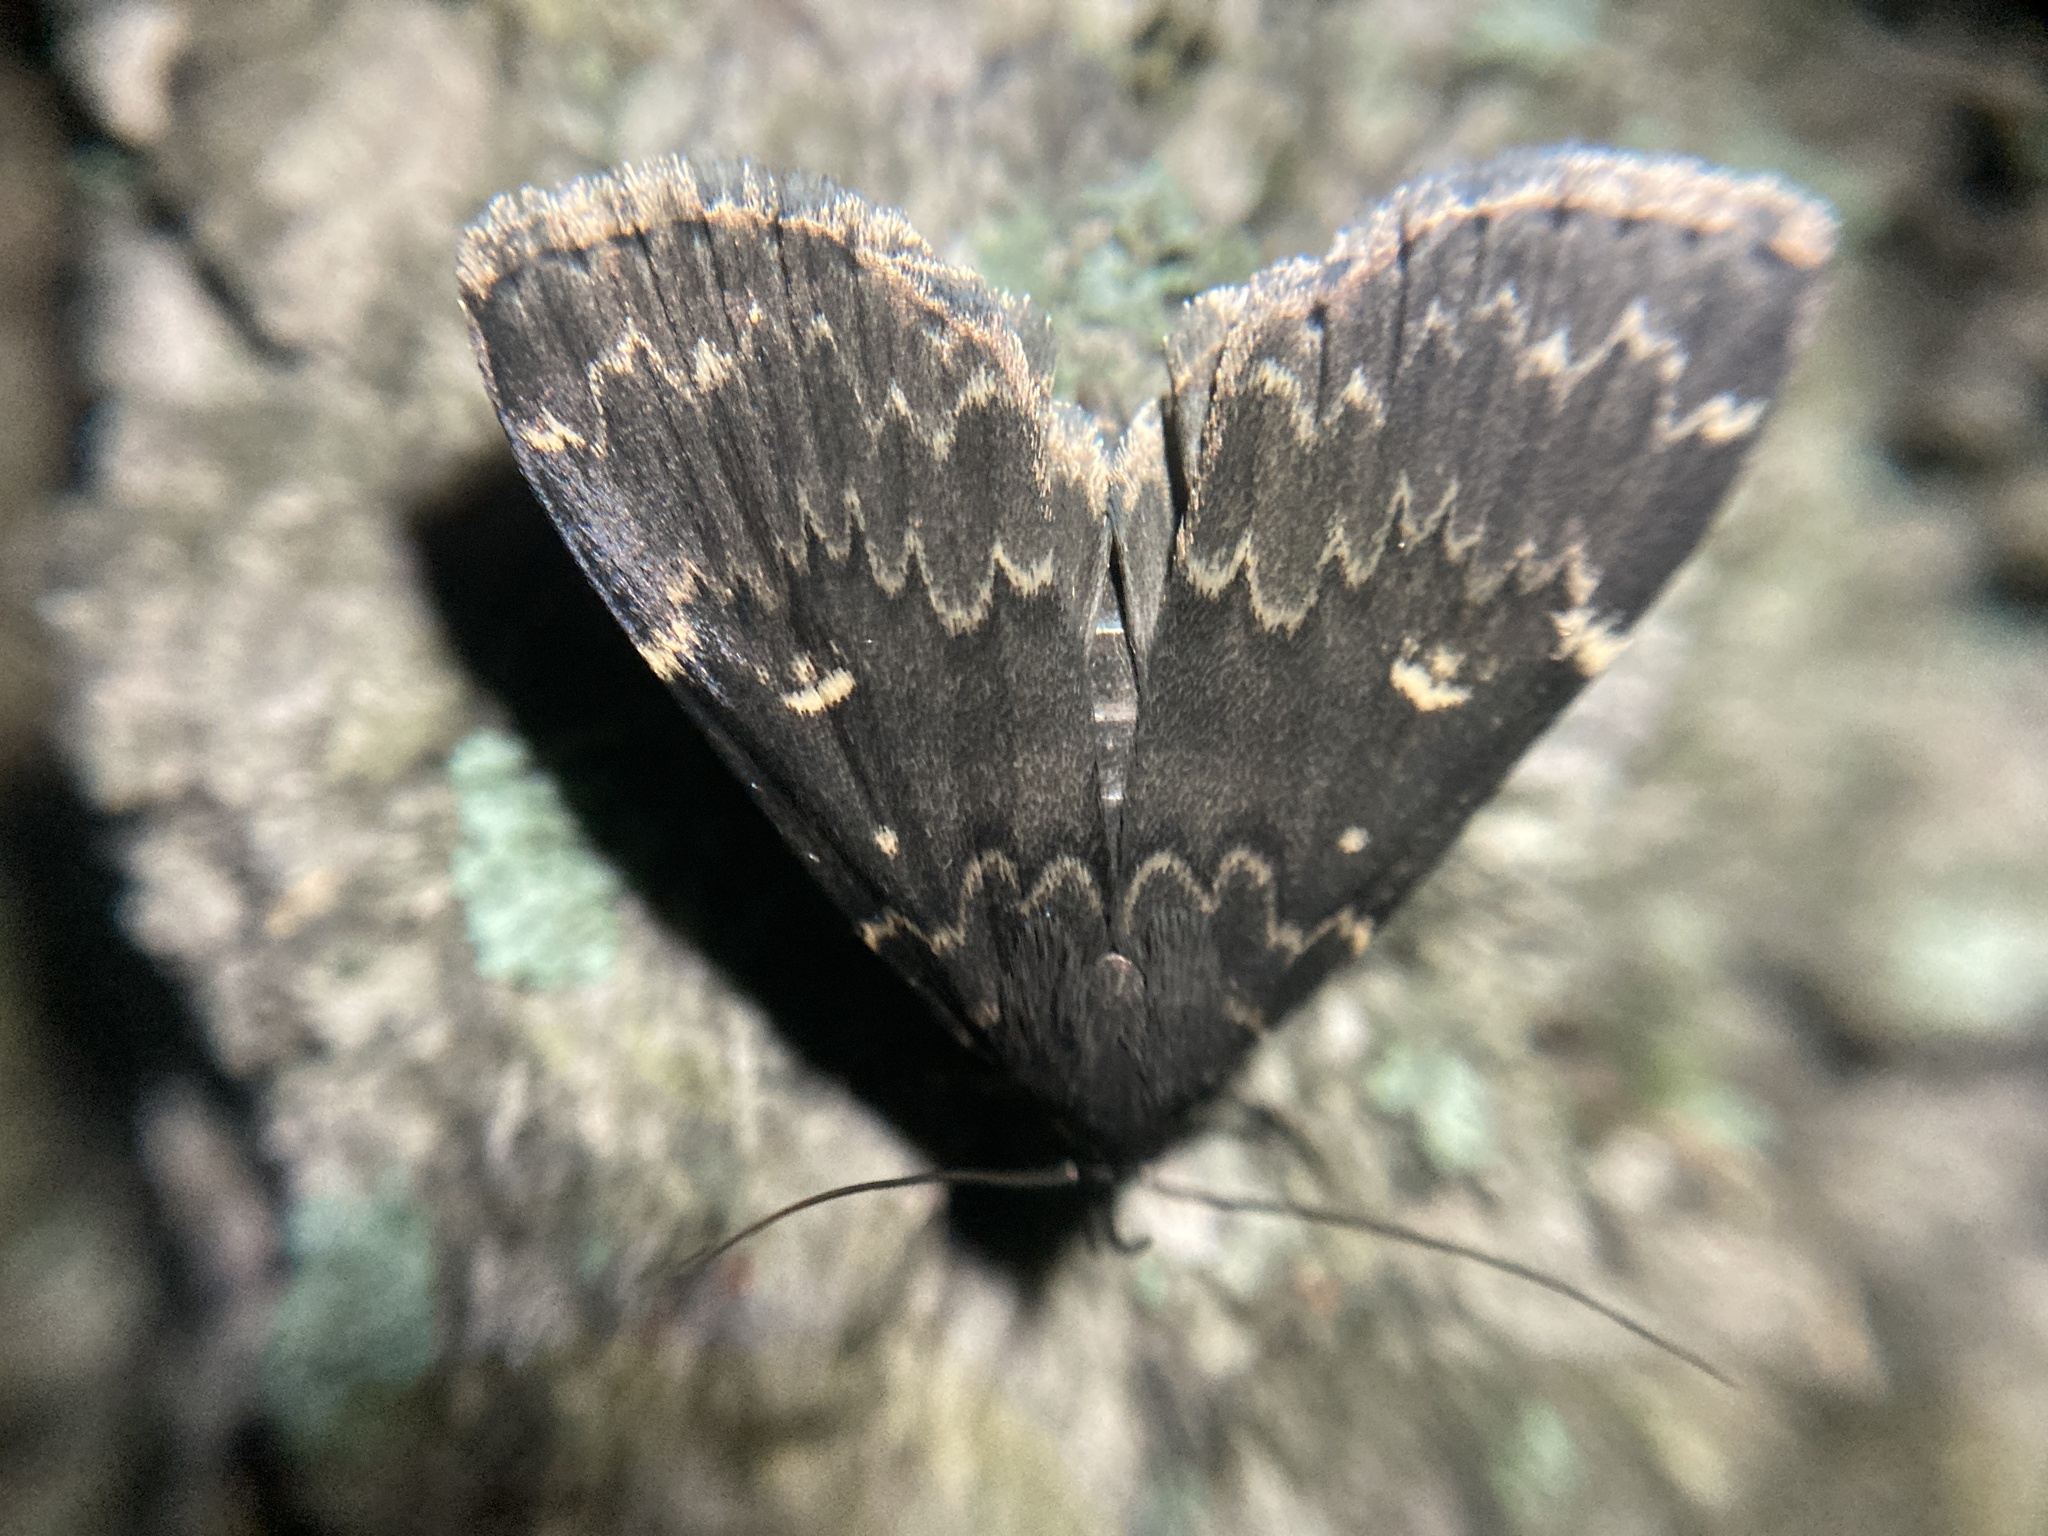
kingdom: Animalia
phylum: Arthropoda
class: Insecta
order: Lepidoptera
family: Erebidae
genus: Idia
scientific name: Idia lubricalis
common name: Twin-striped tabby
